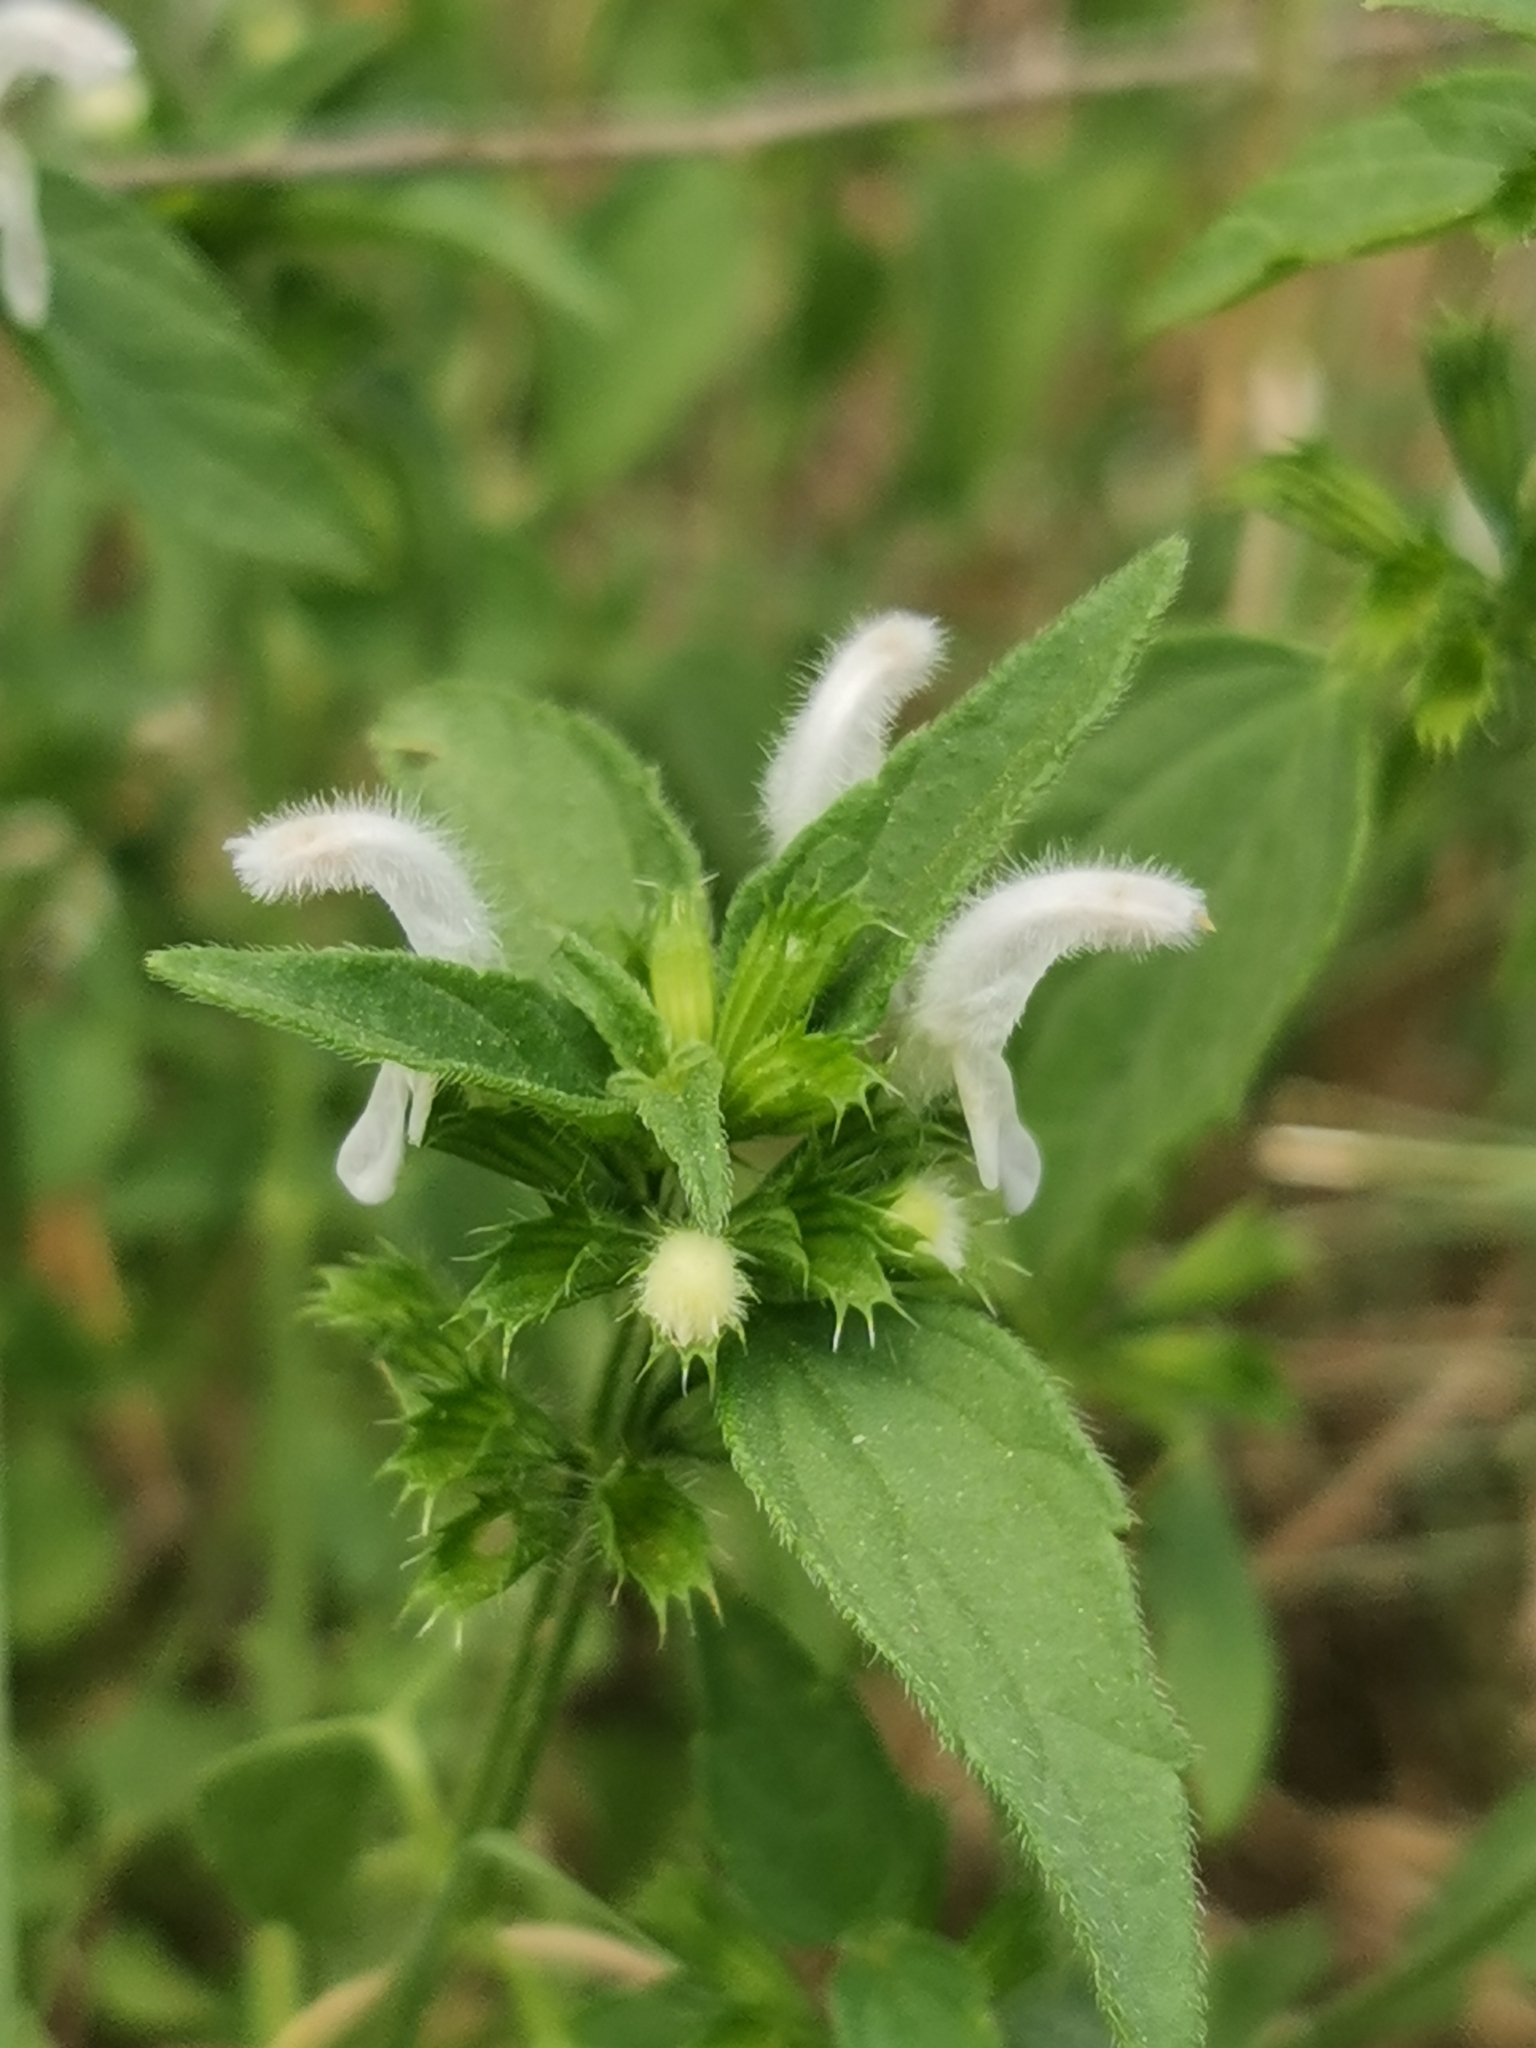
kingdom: Plantae
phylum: Tracheophyta
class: Magnoliopsida
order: Lamiales
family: Lamiaceae
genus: Leucas
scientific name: Leucas glabrata
